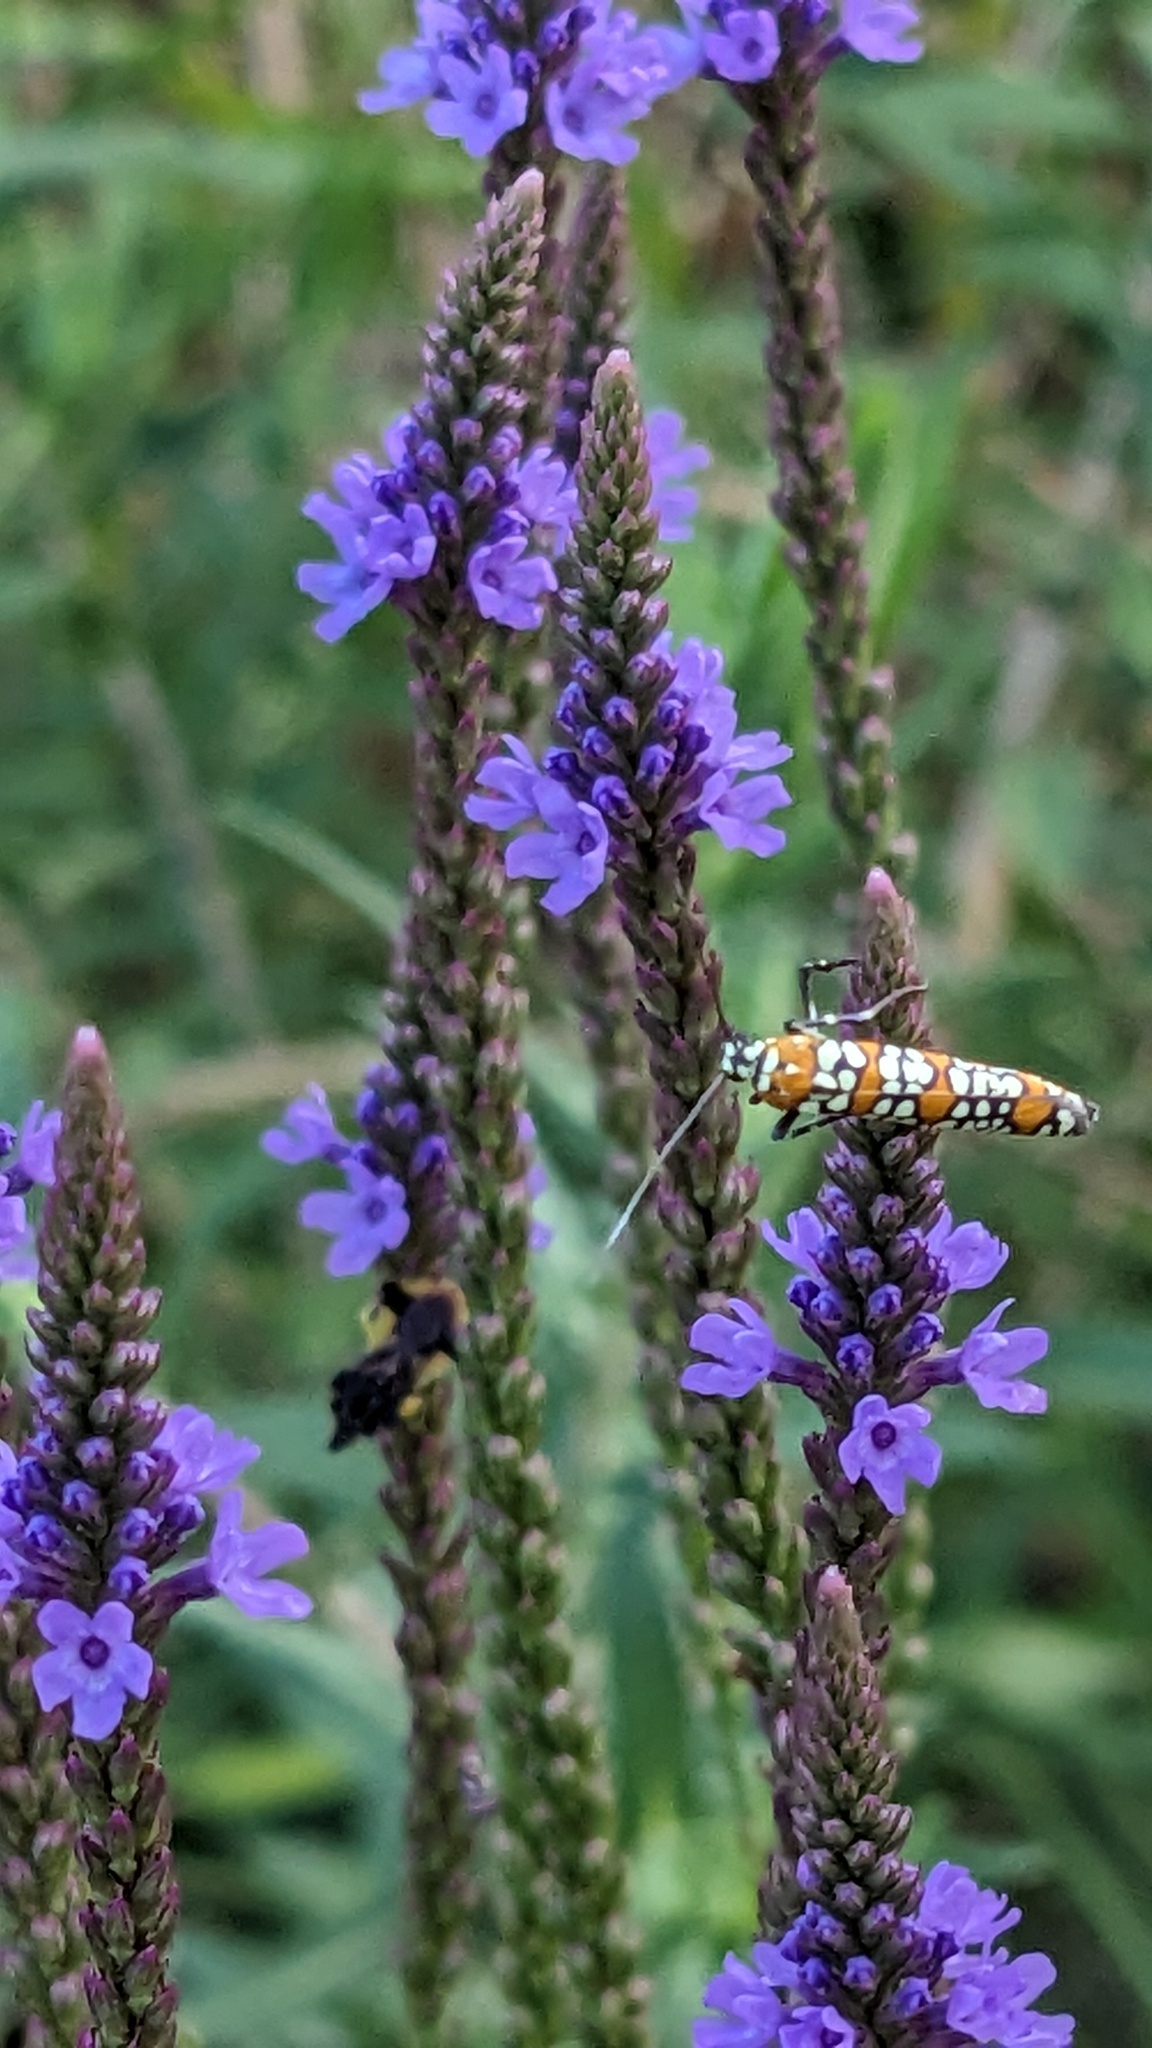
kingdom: Animalia
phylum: Arthropoda
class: Insecta
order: Lepidoptera
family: Attevidae
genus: Atteva
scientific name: Atteva punctella
